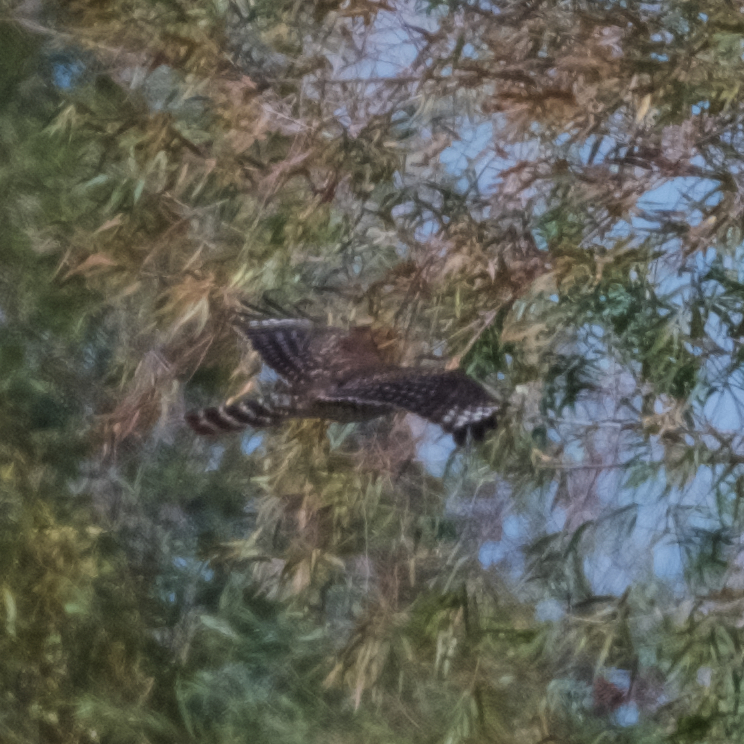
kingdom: Animalia
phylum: Chordata
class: Aves
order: Accipitriformes
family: Accipitridae
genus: Buteo
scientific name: Buteo lineatus
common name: Red-shouldered hawk
